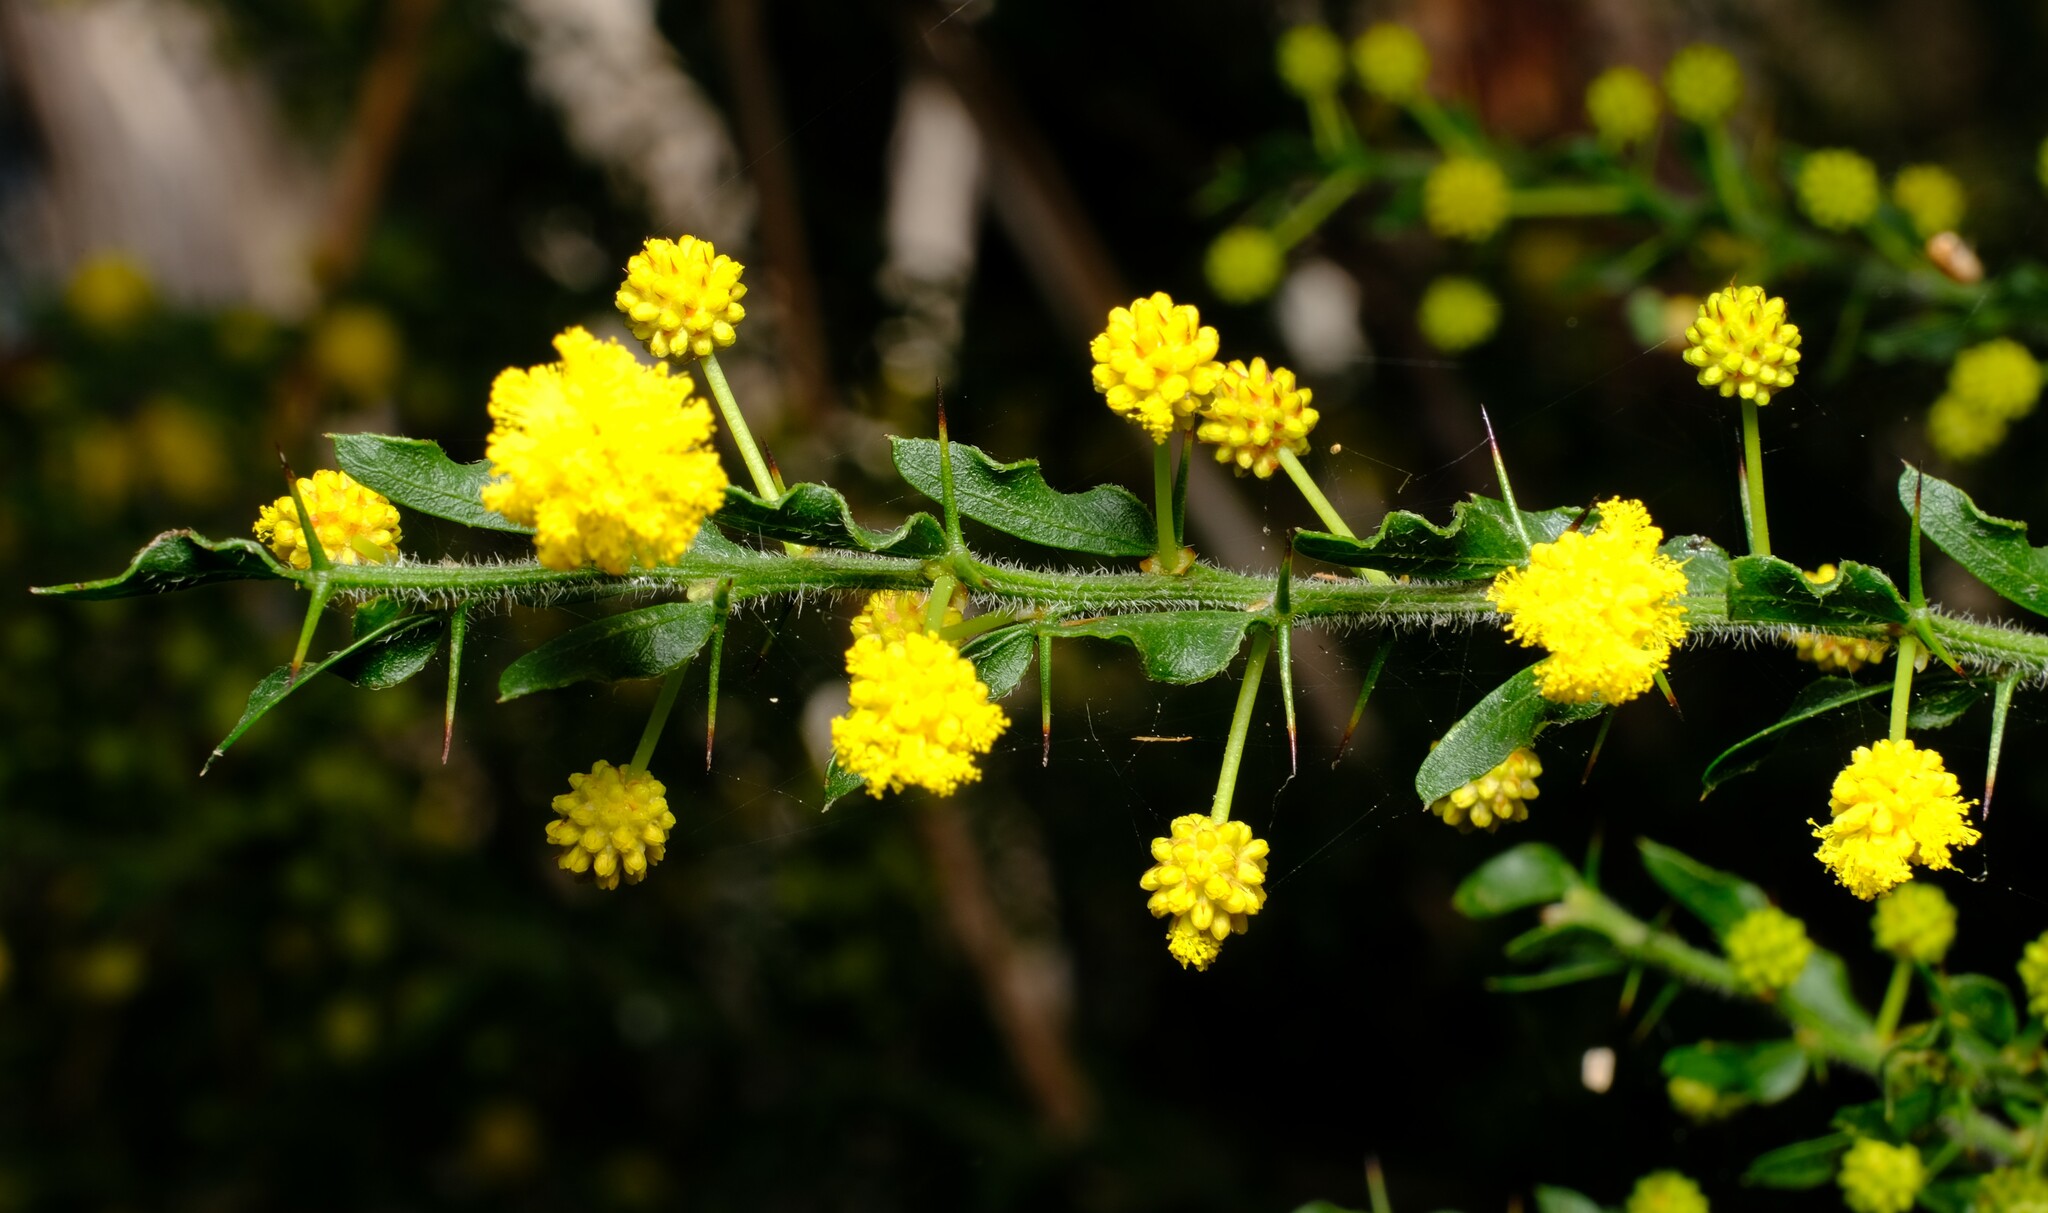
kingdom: Plantae
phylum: Tracheophyta
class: Magnoliopsida
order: Fabales
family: Fabaceae
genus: Acacia
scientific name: Acacia paradoxa
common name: Paradox acacia
